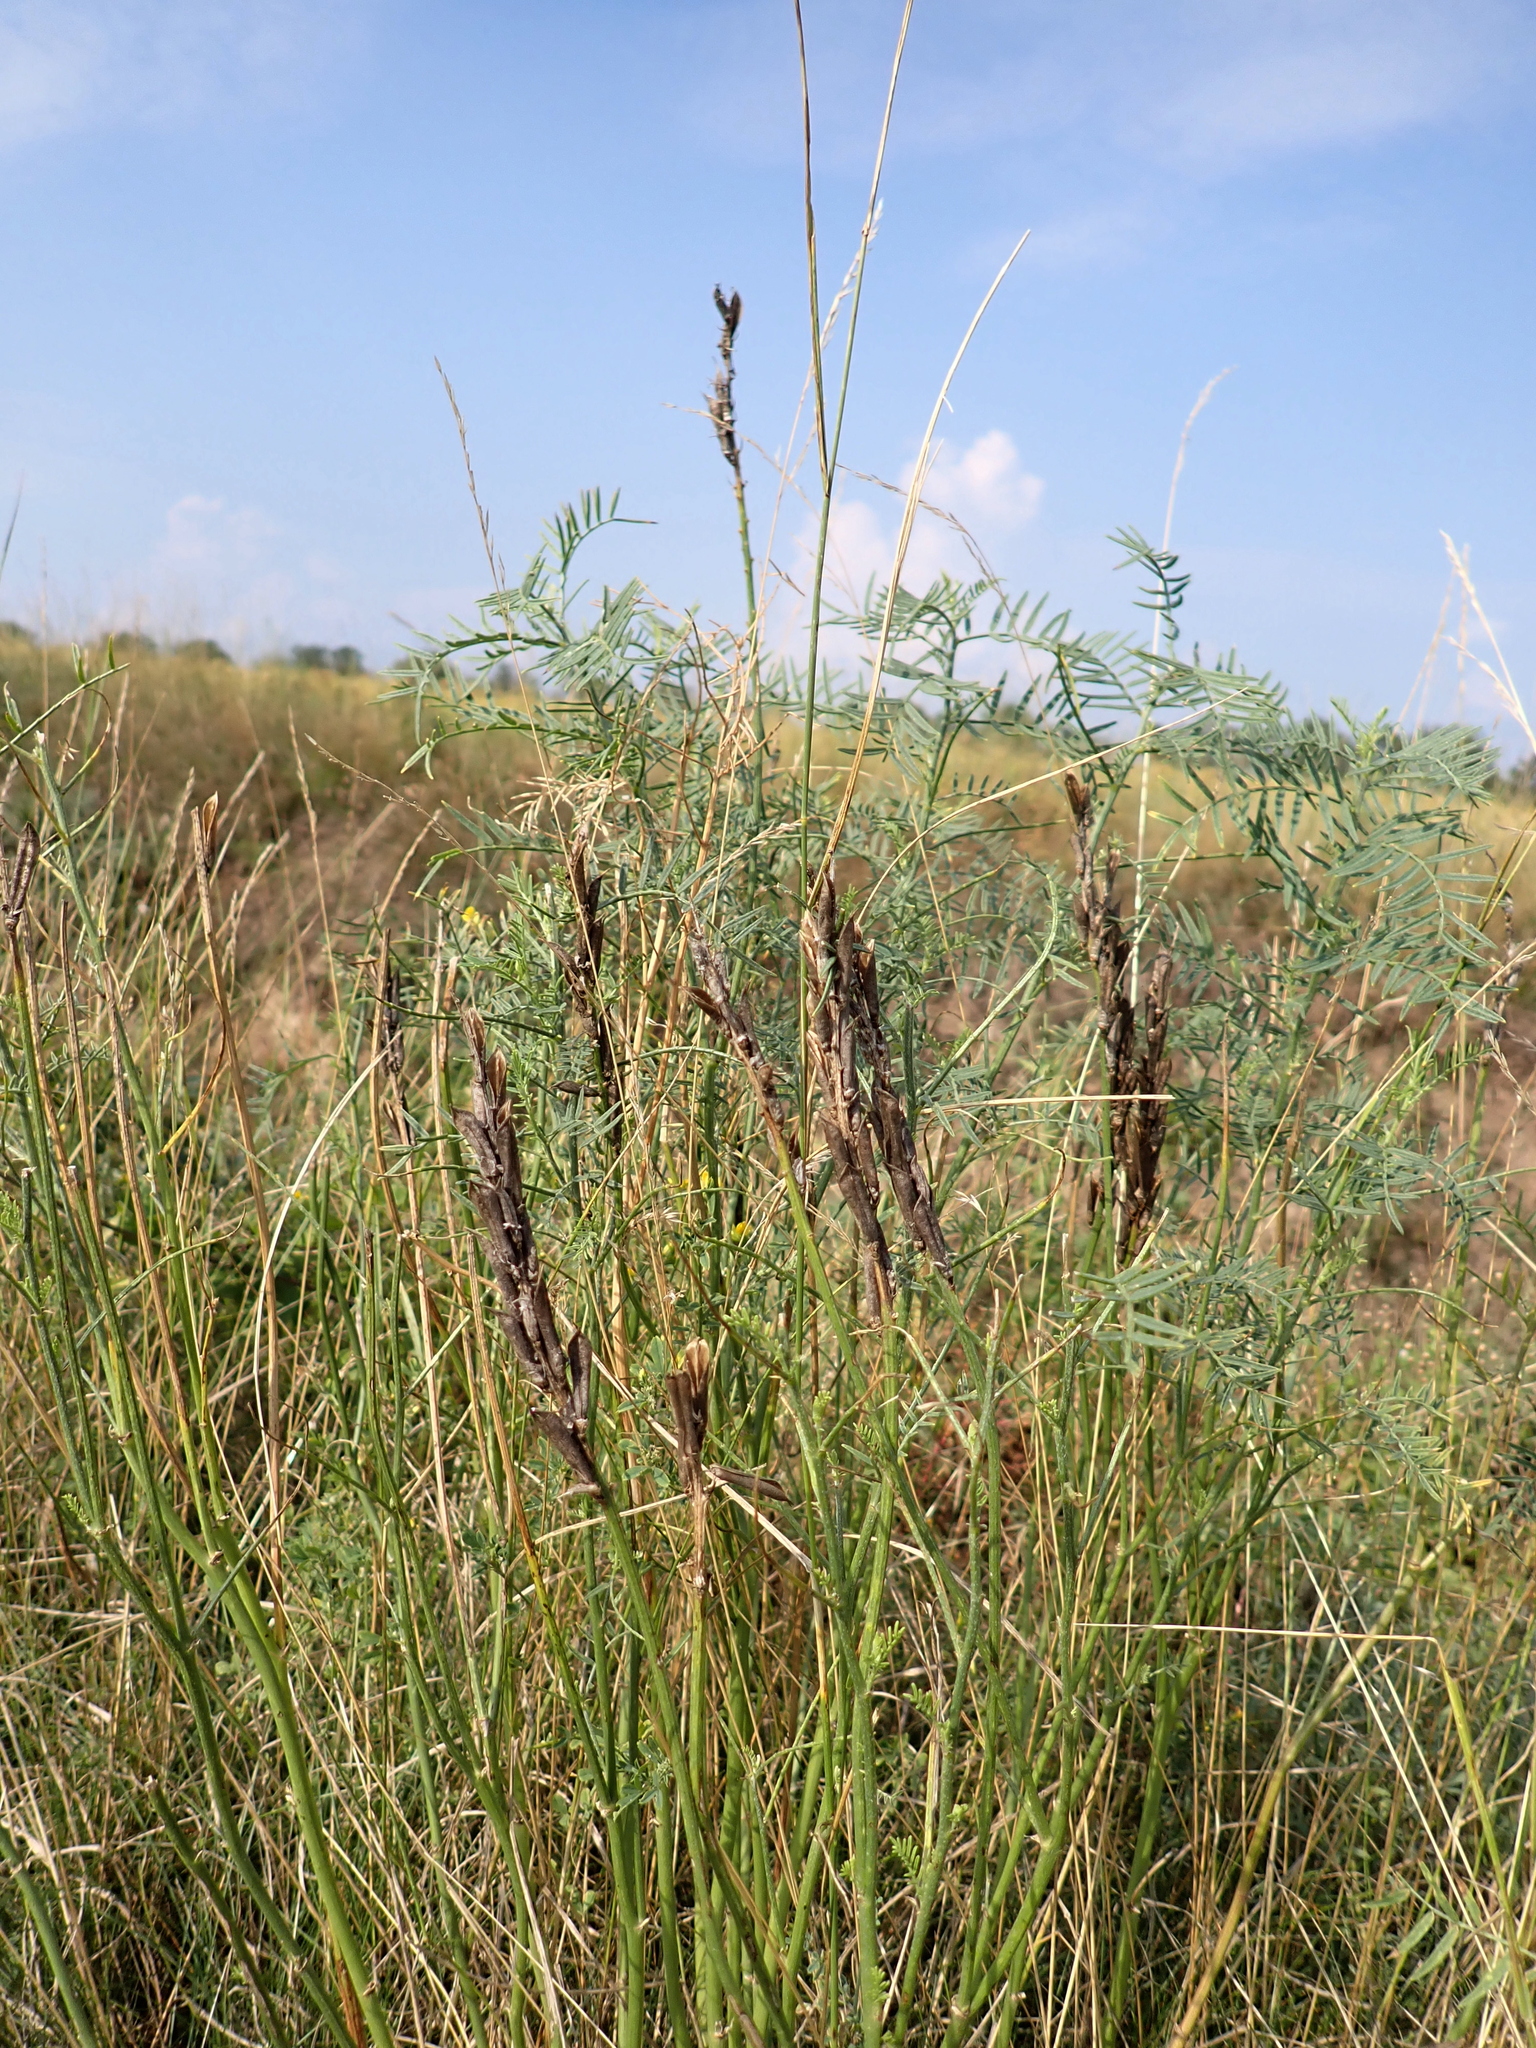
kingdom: Plantae
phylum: Tracheophyta
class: Magnoliopsida
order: Fabales
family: Fabaceae
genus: Astragalus
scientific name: Astragalus asper
